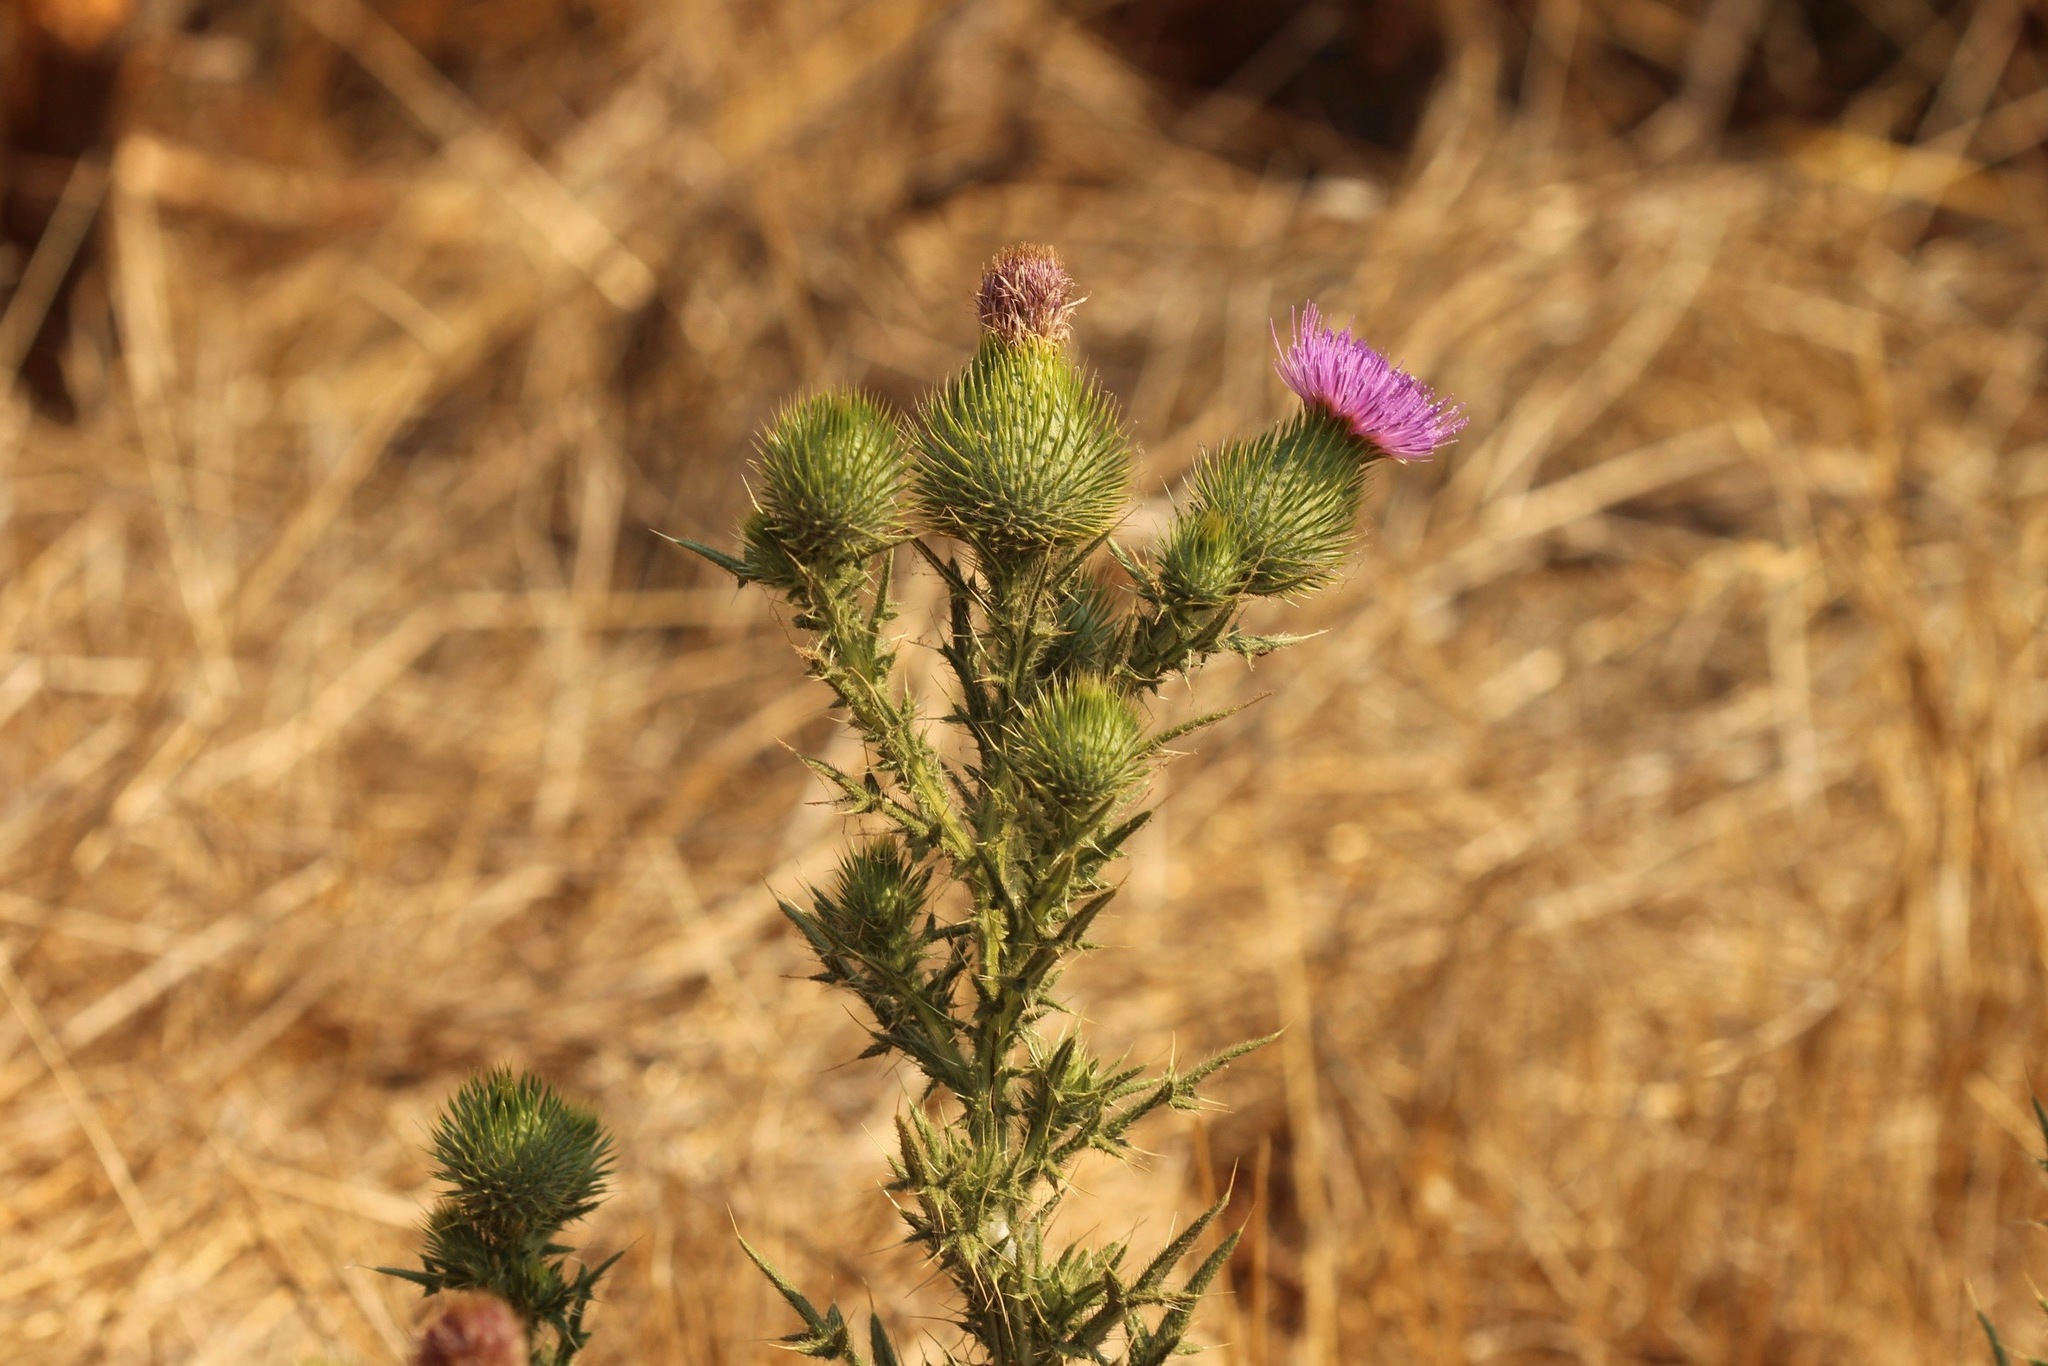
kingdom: Plantae
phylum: Tracheophyta
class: Magnoliopsida
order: Asterales
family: Asteraceae
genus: Cirsium
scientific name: Cirsium vulgare
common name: Bull thistle
